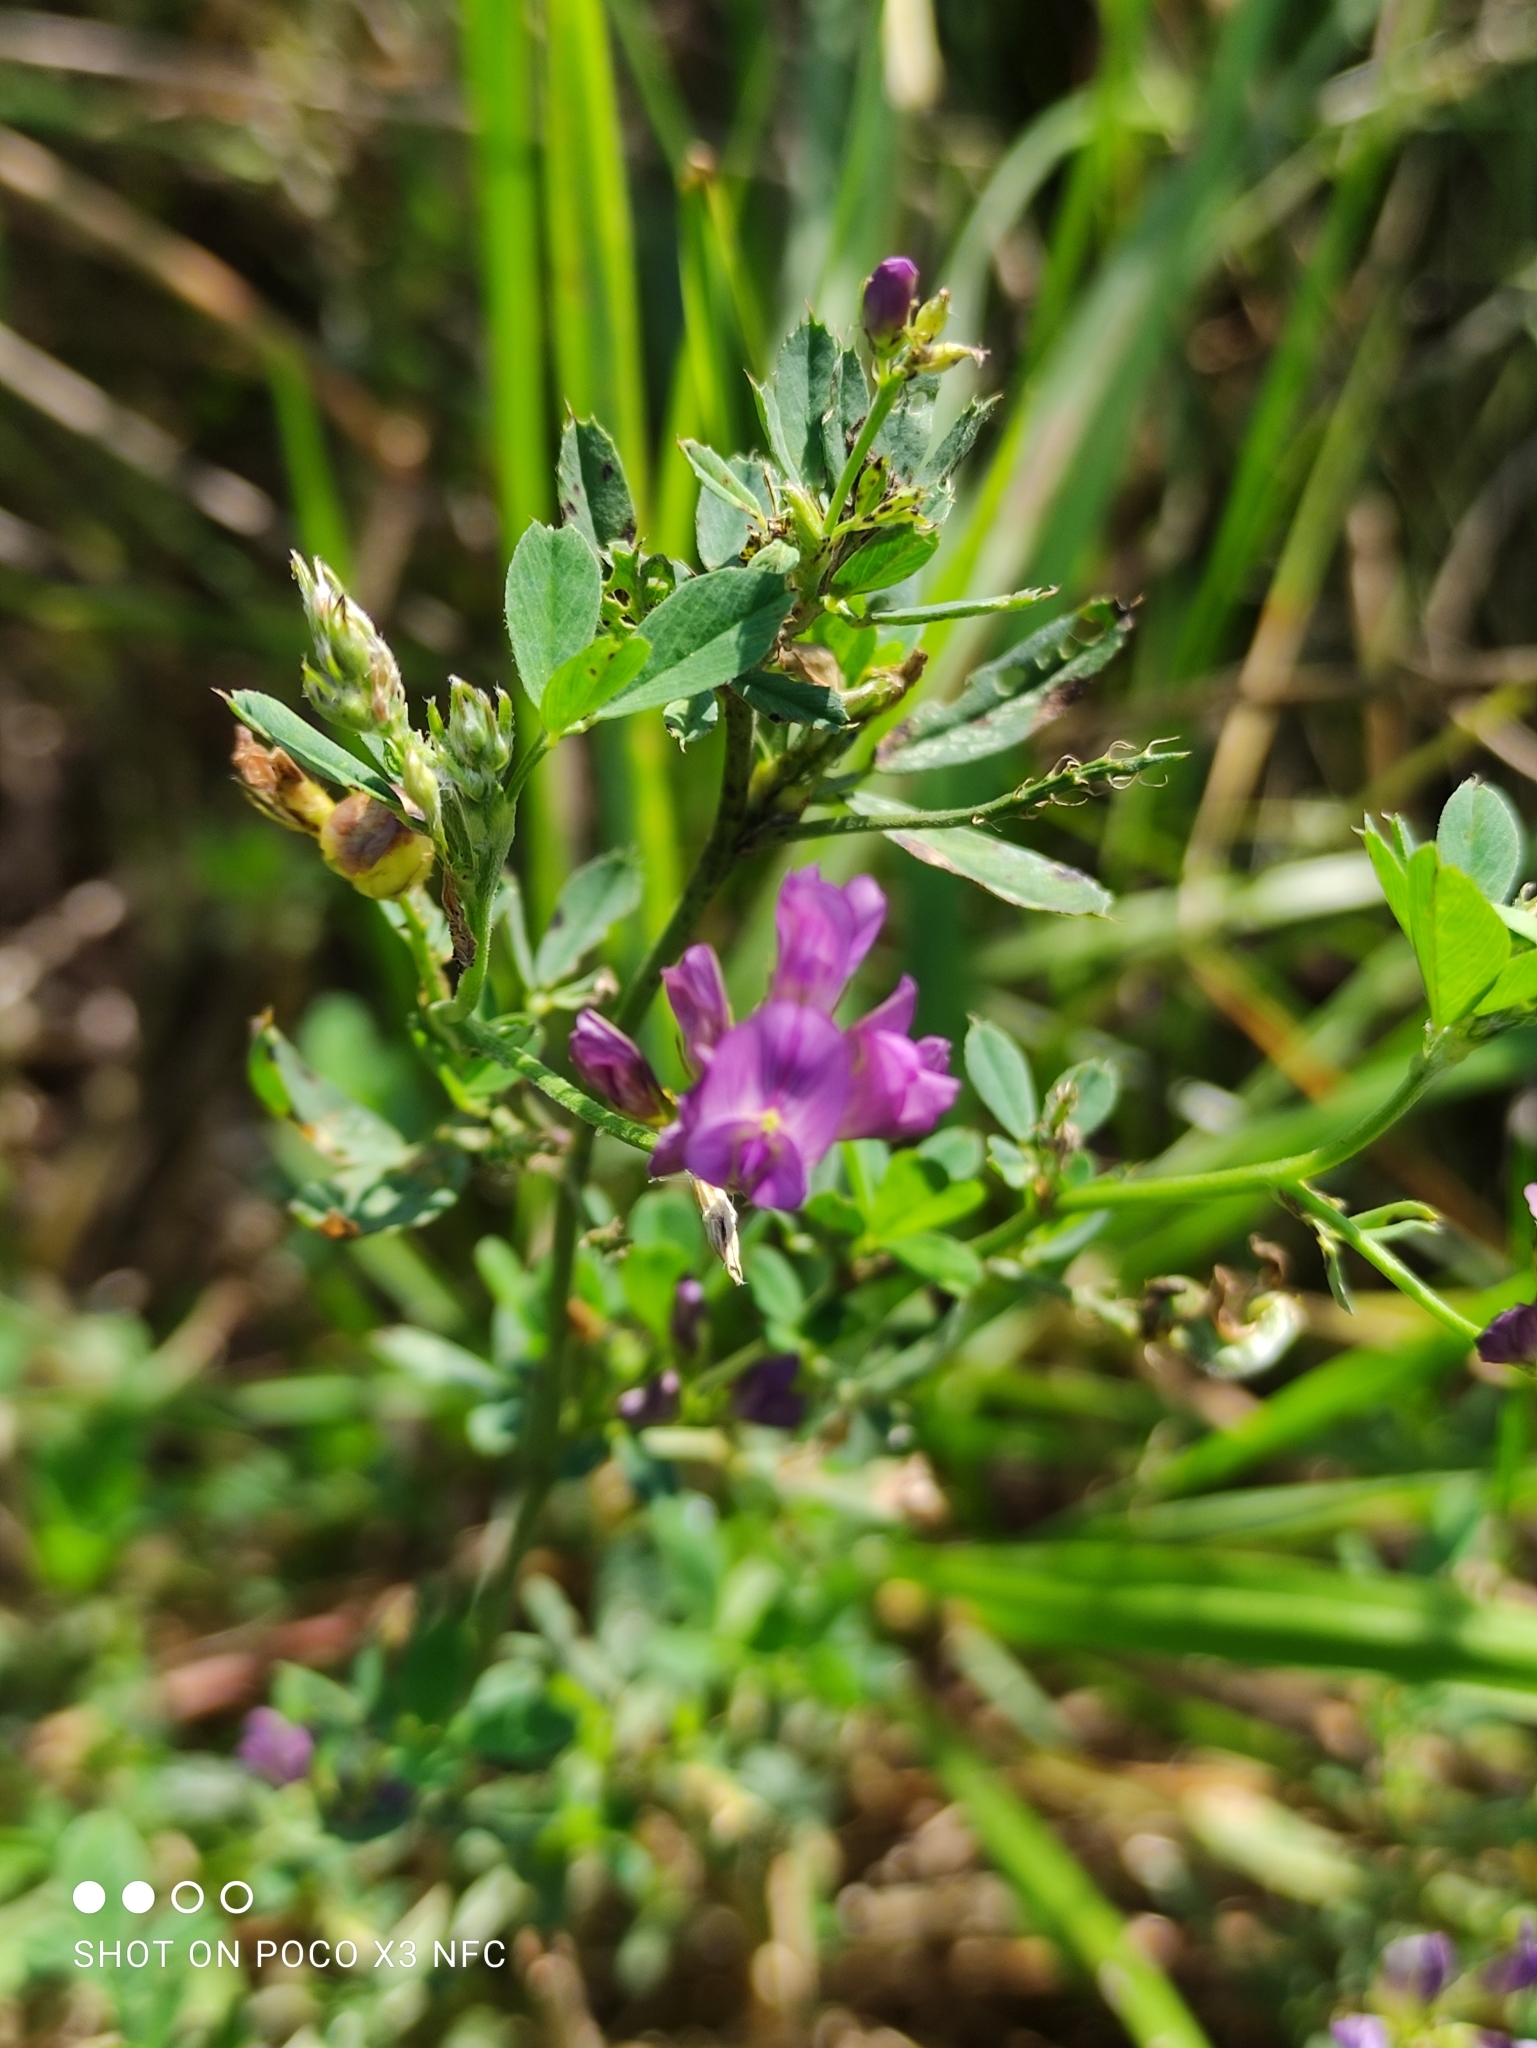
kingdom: Plantae
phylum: Tracheophyta
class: Magnoliopsida
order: Fabales
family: Fabaceae
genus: Medicago
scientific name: Medicago varia
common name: Sand lucerne
